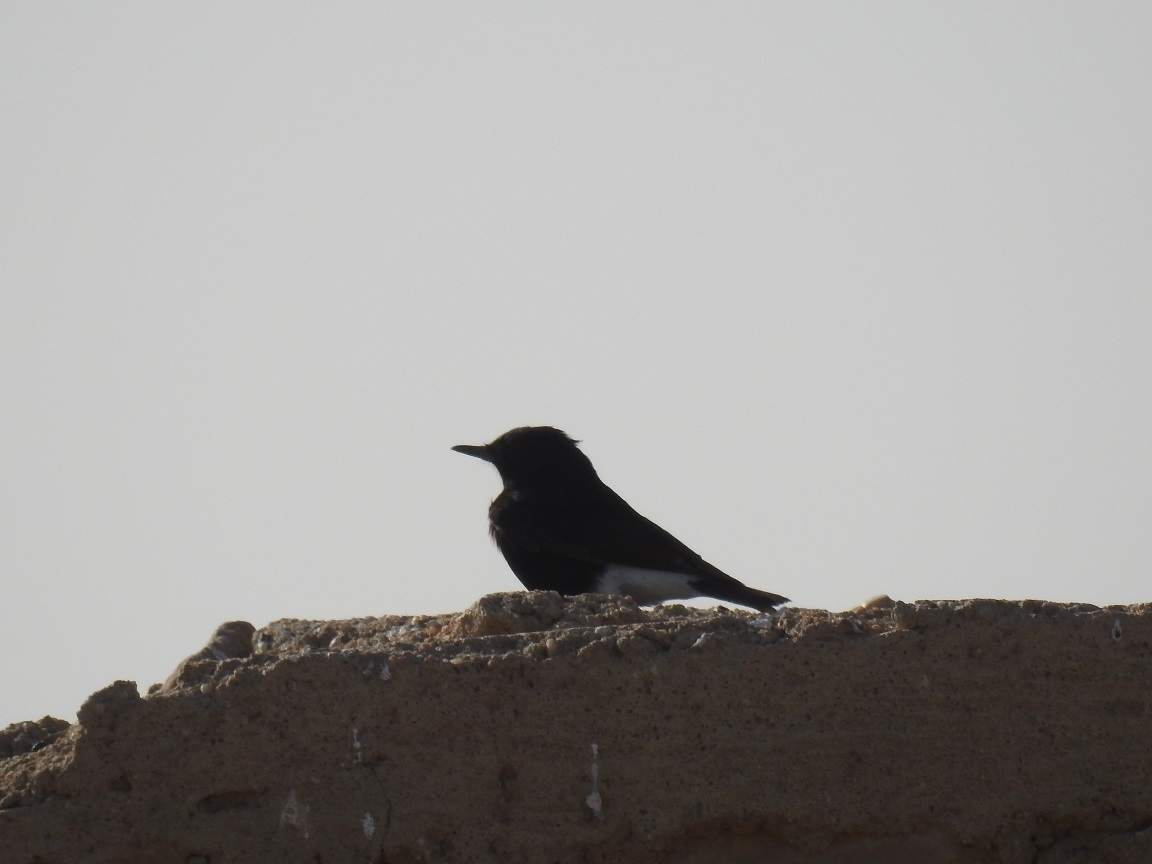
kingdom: Animalia
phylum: Chordata
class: Aves
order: Passeriformes
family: Muscicapidae
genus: Oenanthe
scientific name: Oenanthe leucopyga
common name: White-crowned wheatear
